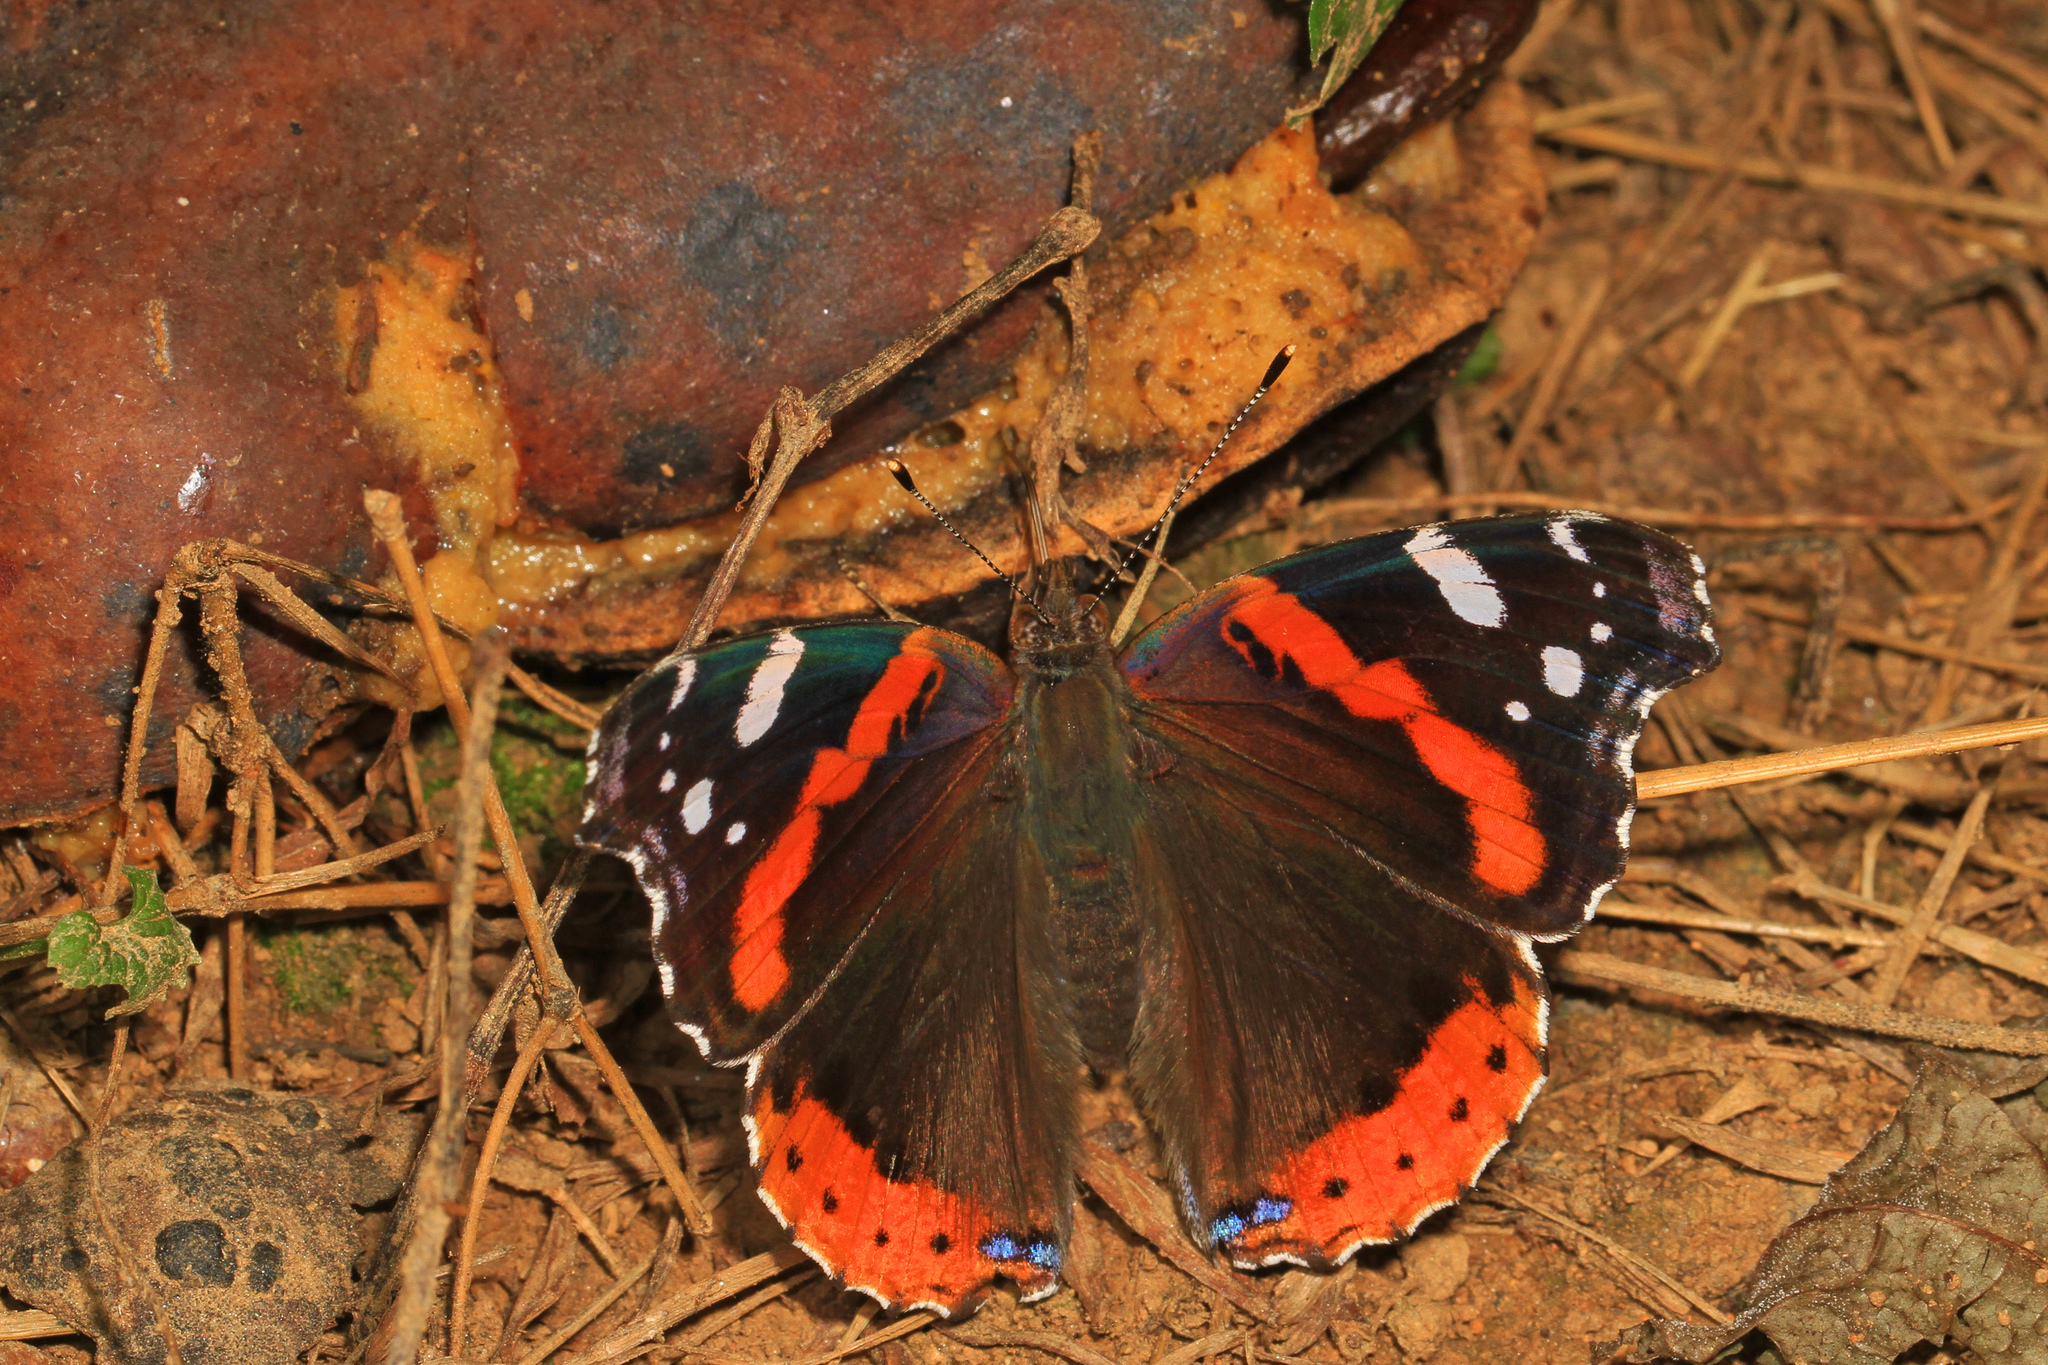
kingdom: Animalia
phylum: Arthropoda
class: Insecta
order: Lepidoptera
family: Nymphalidae
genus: Vanessa
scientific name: Vanessa atalanta
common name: Red admiral
